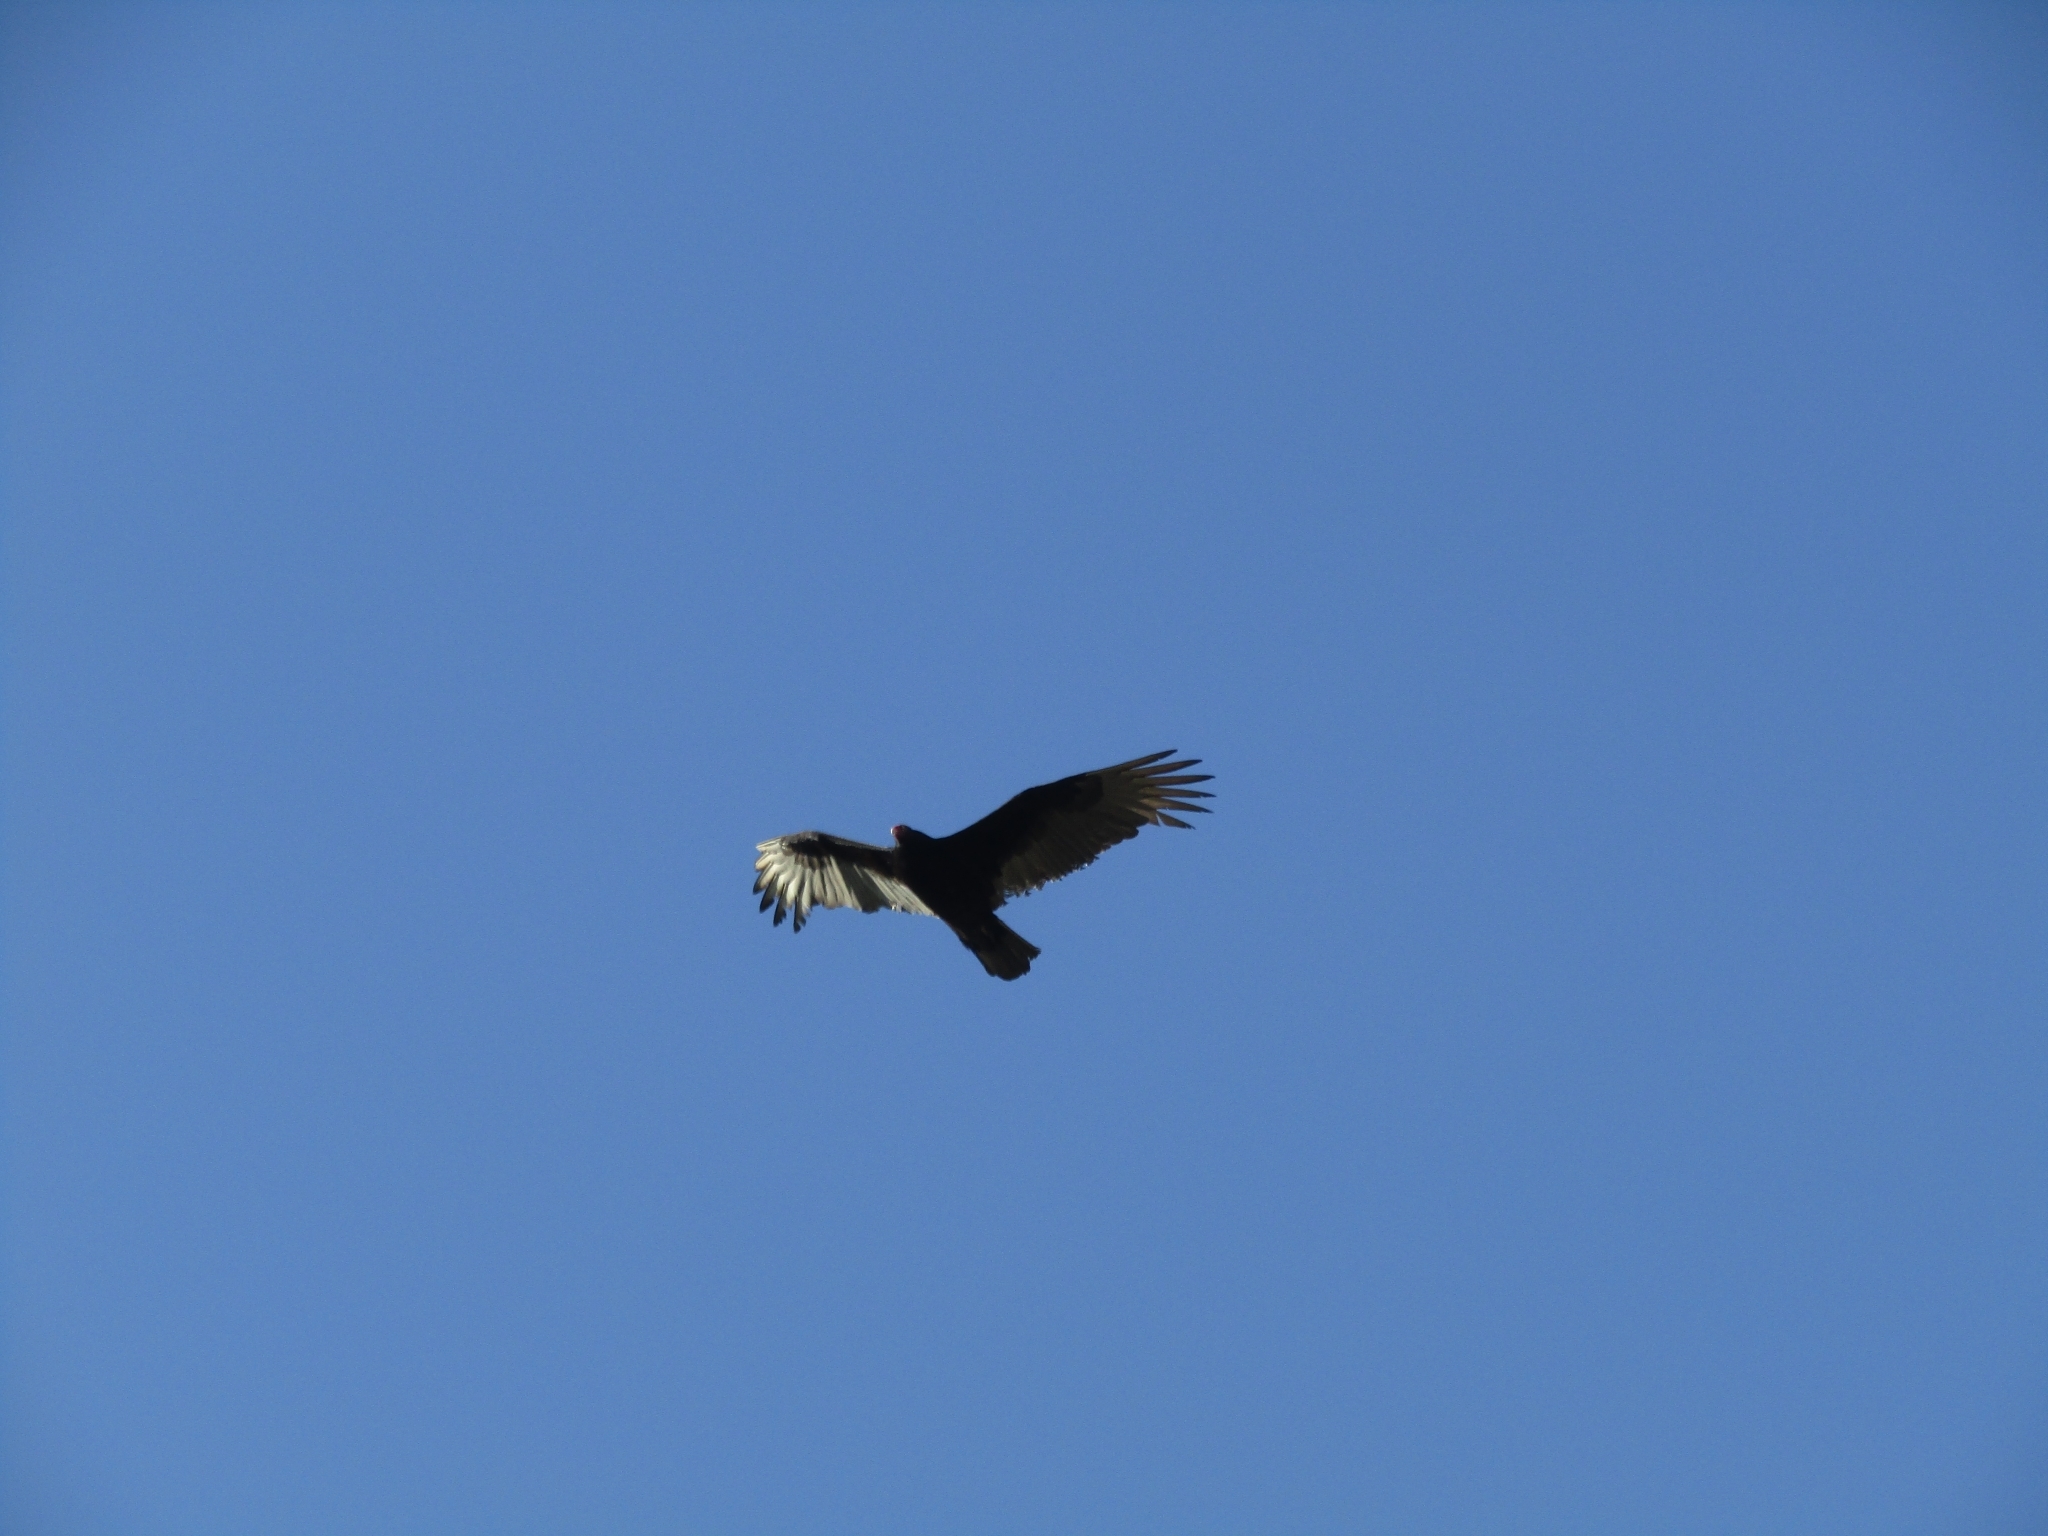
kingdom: Animalia
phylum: Chordata
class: Aves
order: Accipitriformes
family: Cathartidae
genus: Cathartes
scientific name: Cathartes aura
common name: Turkey vulture
